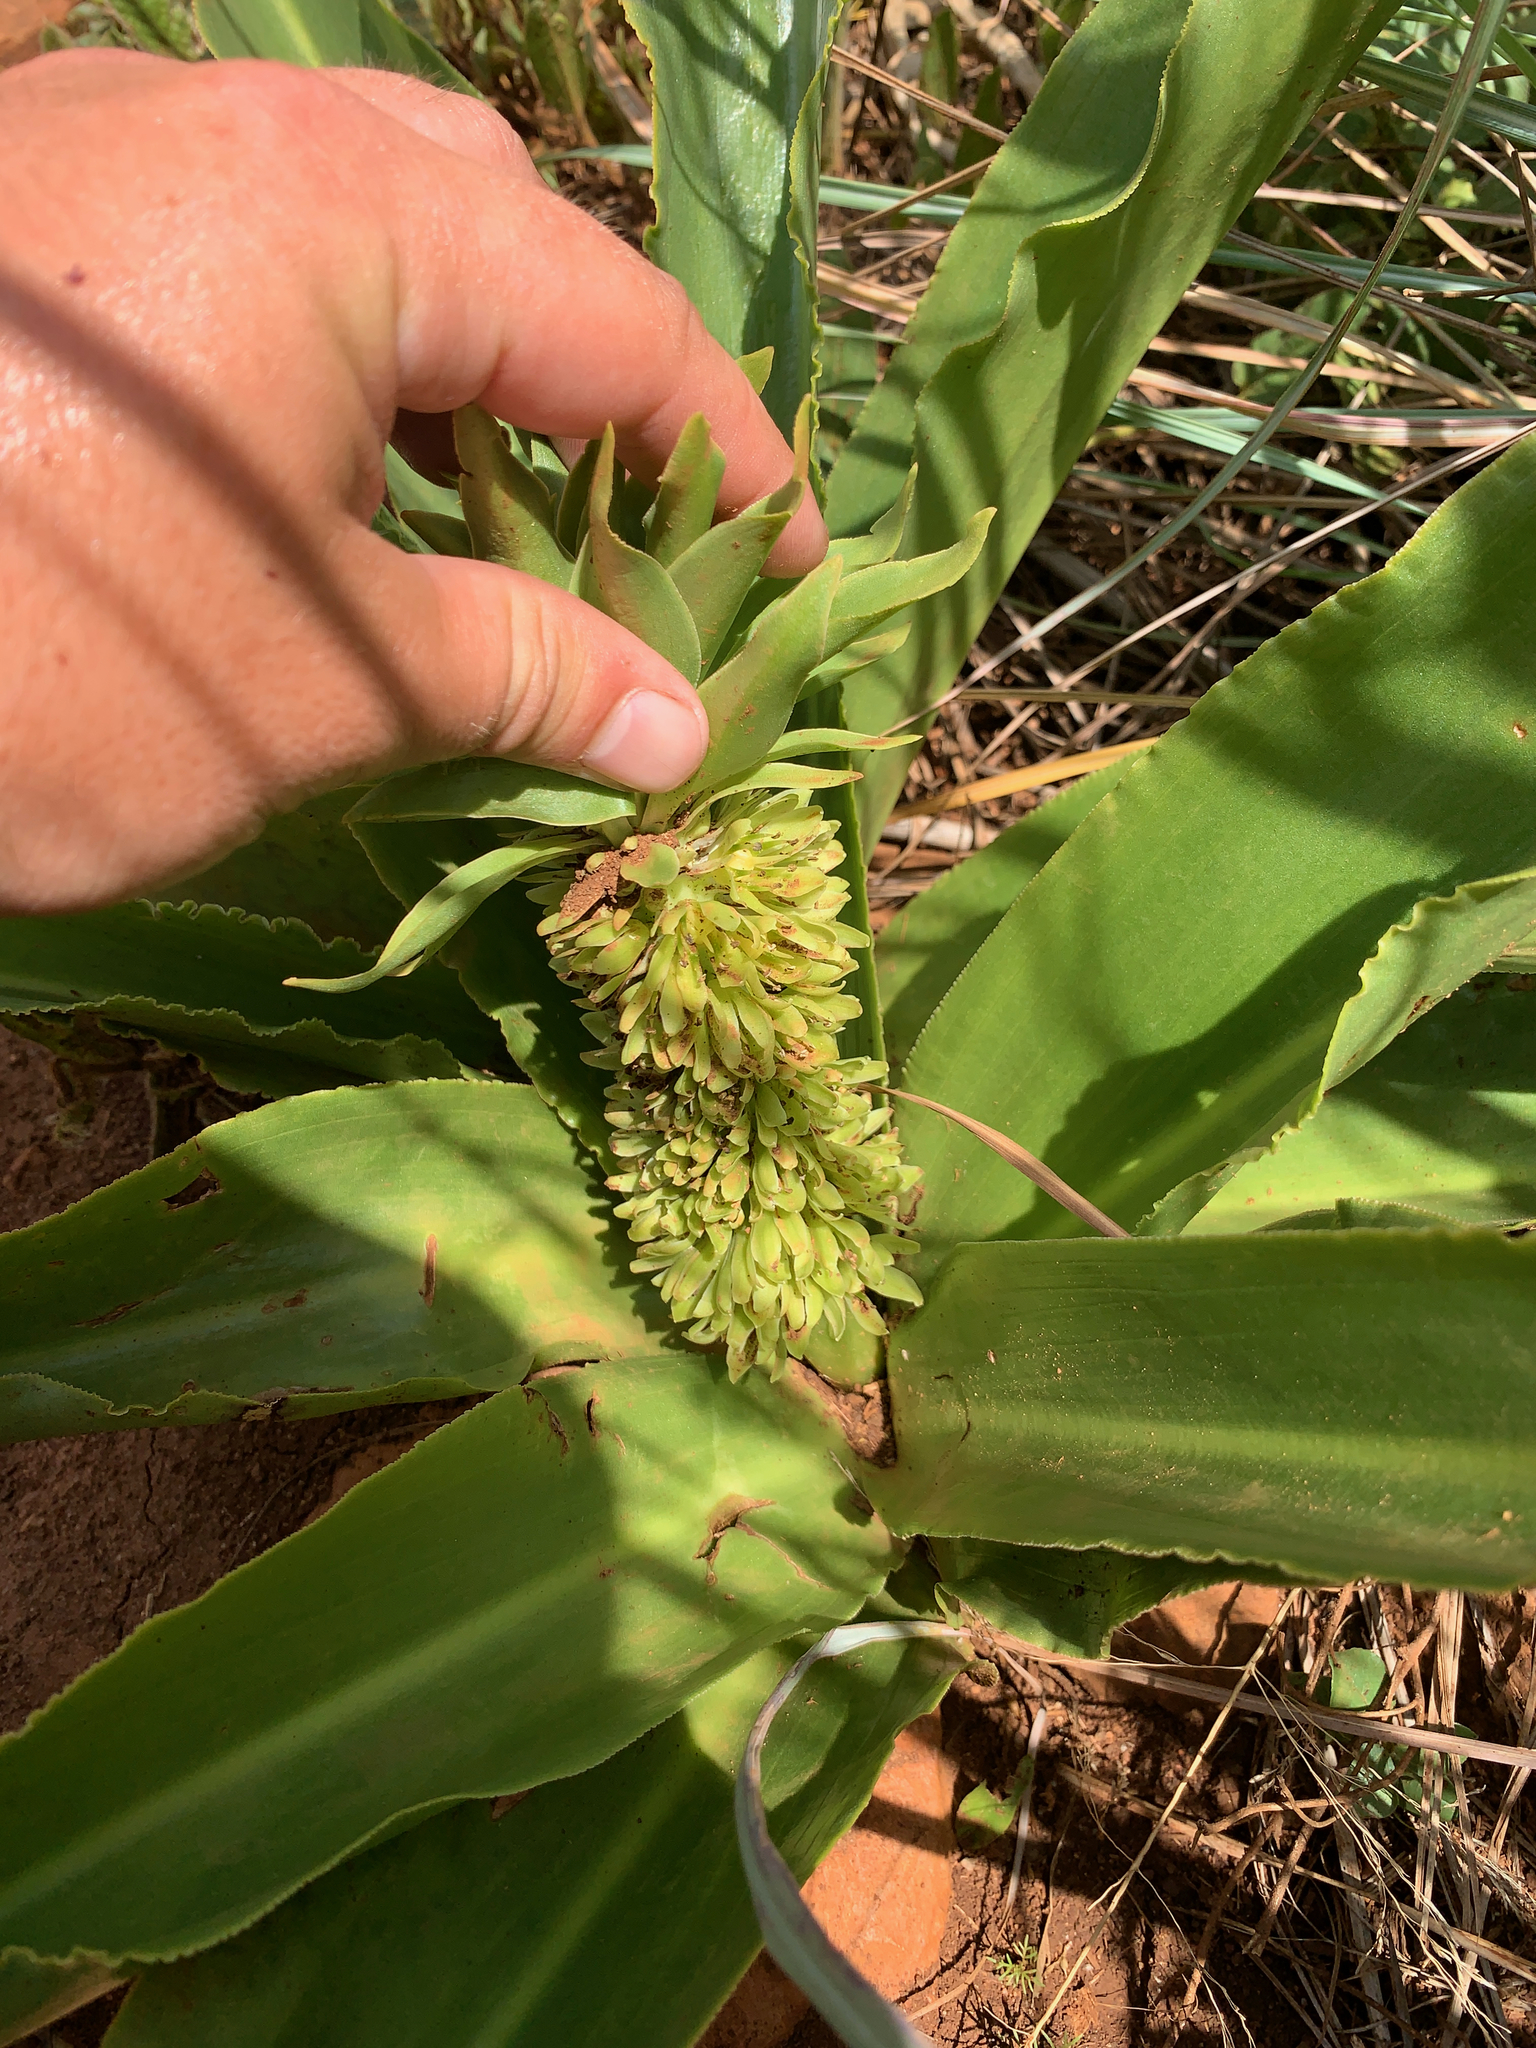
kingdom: Plantae
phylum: Tracheophyta
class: Liliopsida
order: Asparagales
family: Asparagaceae
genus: Eucomis
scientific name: Eucomis autumnalis
